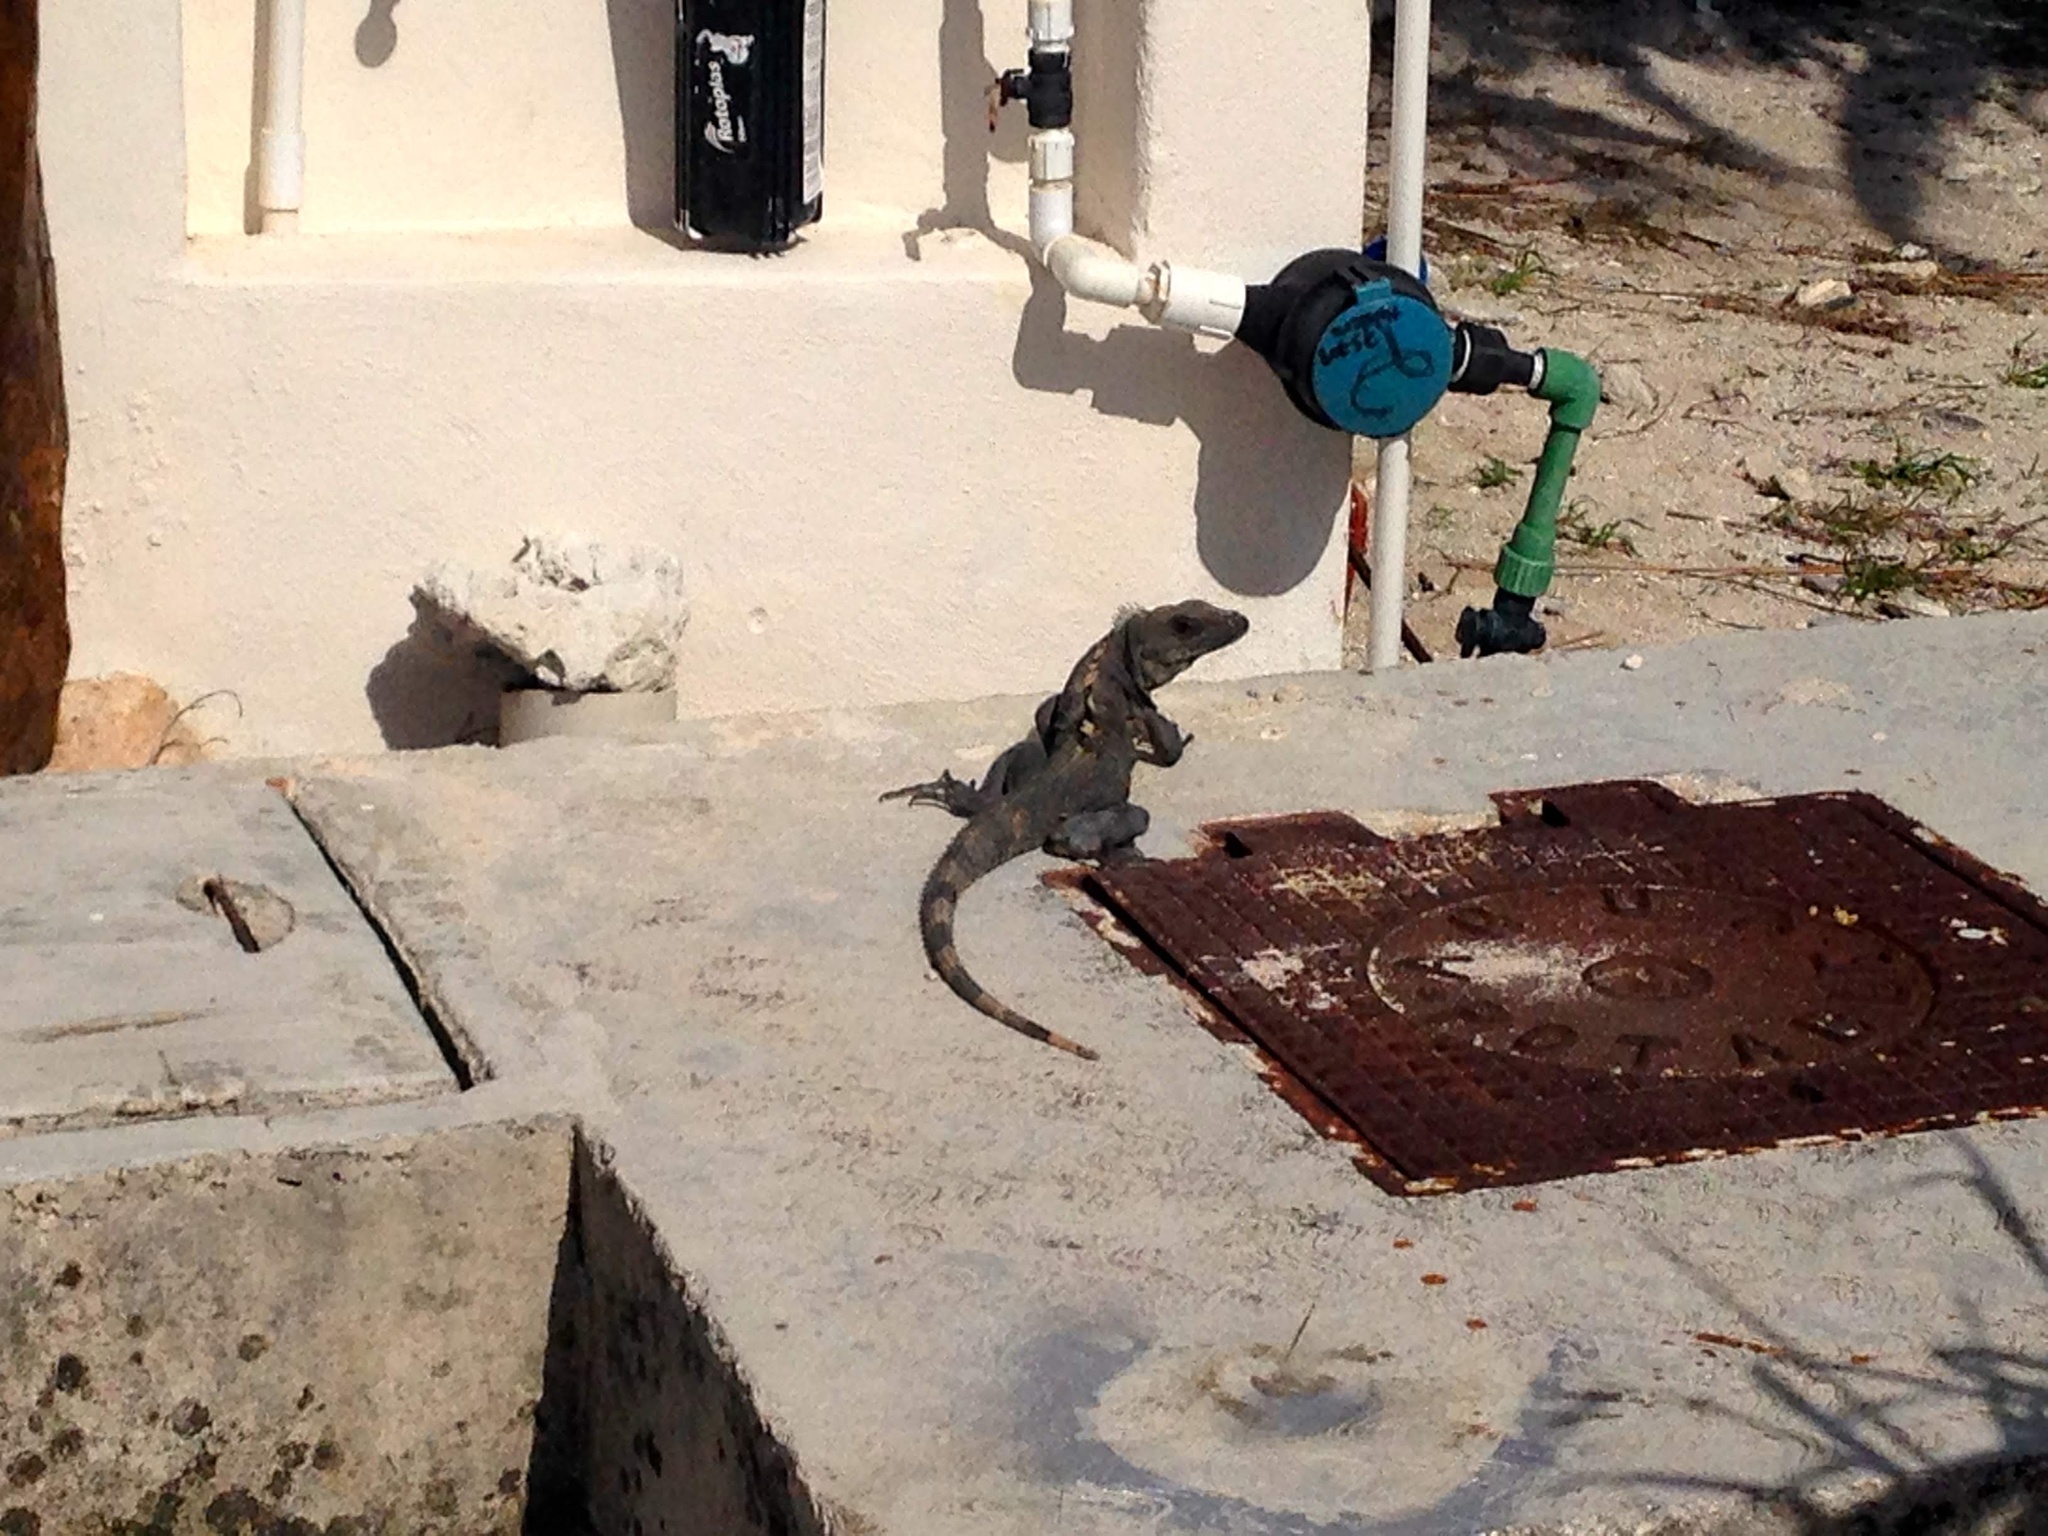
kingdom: Animalia
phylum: Chordata
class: Squamata
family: Iguanidae
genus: Ctenosaura
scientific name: Ctenosaura similis
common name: Black spiny-tailed iguana
